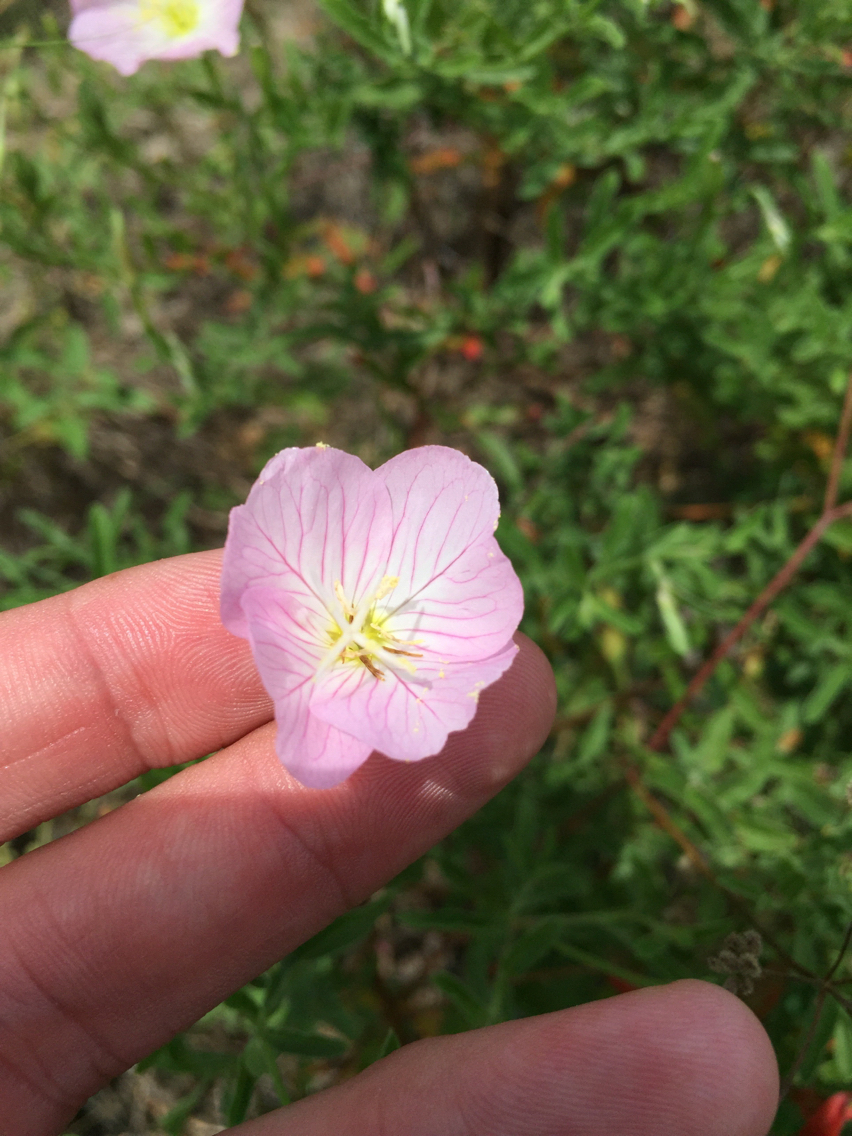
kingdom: Plantae
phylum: Tracheophyta
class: Magnoliopsida
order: Myrtales
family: Onagraceae
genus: Oenothera
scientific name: Oenothera speciosa
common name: White evening-primrose
